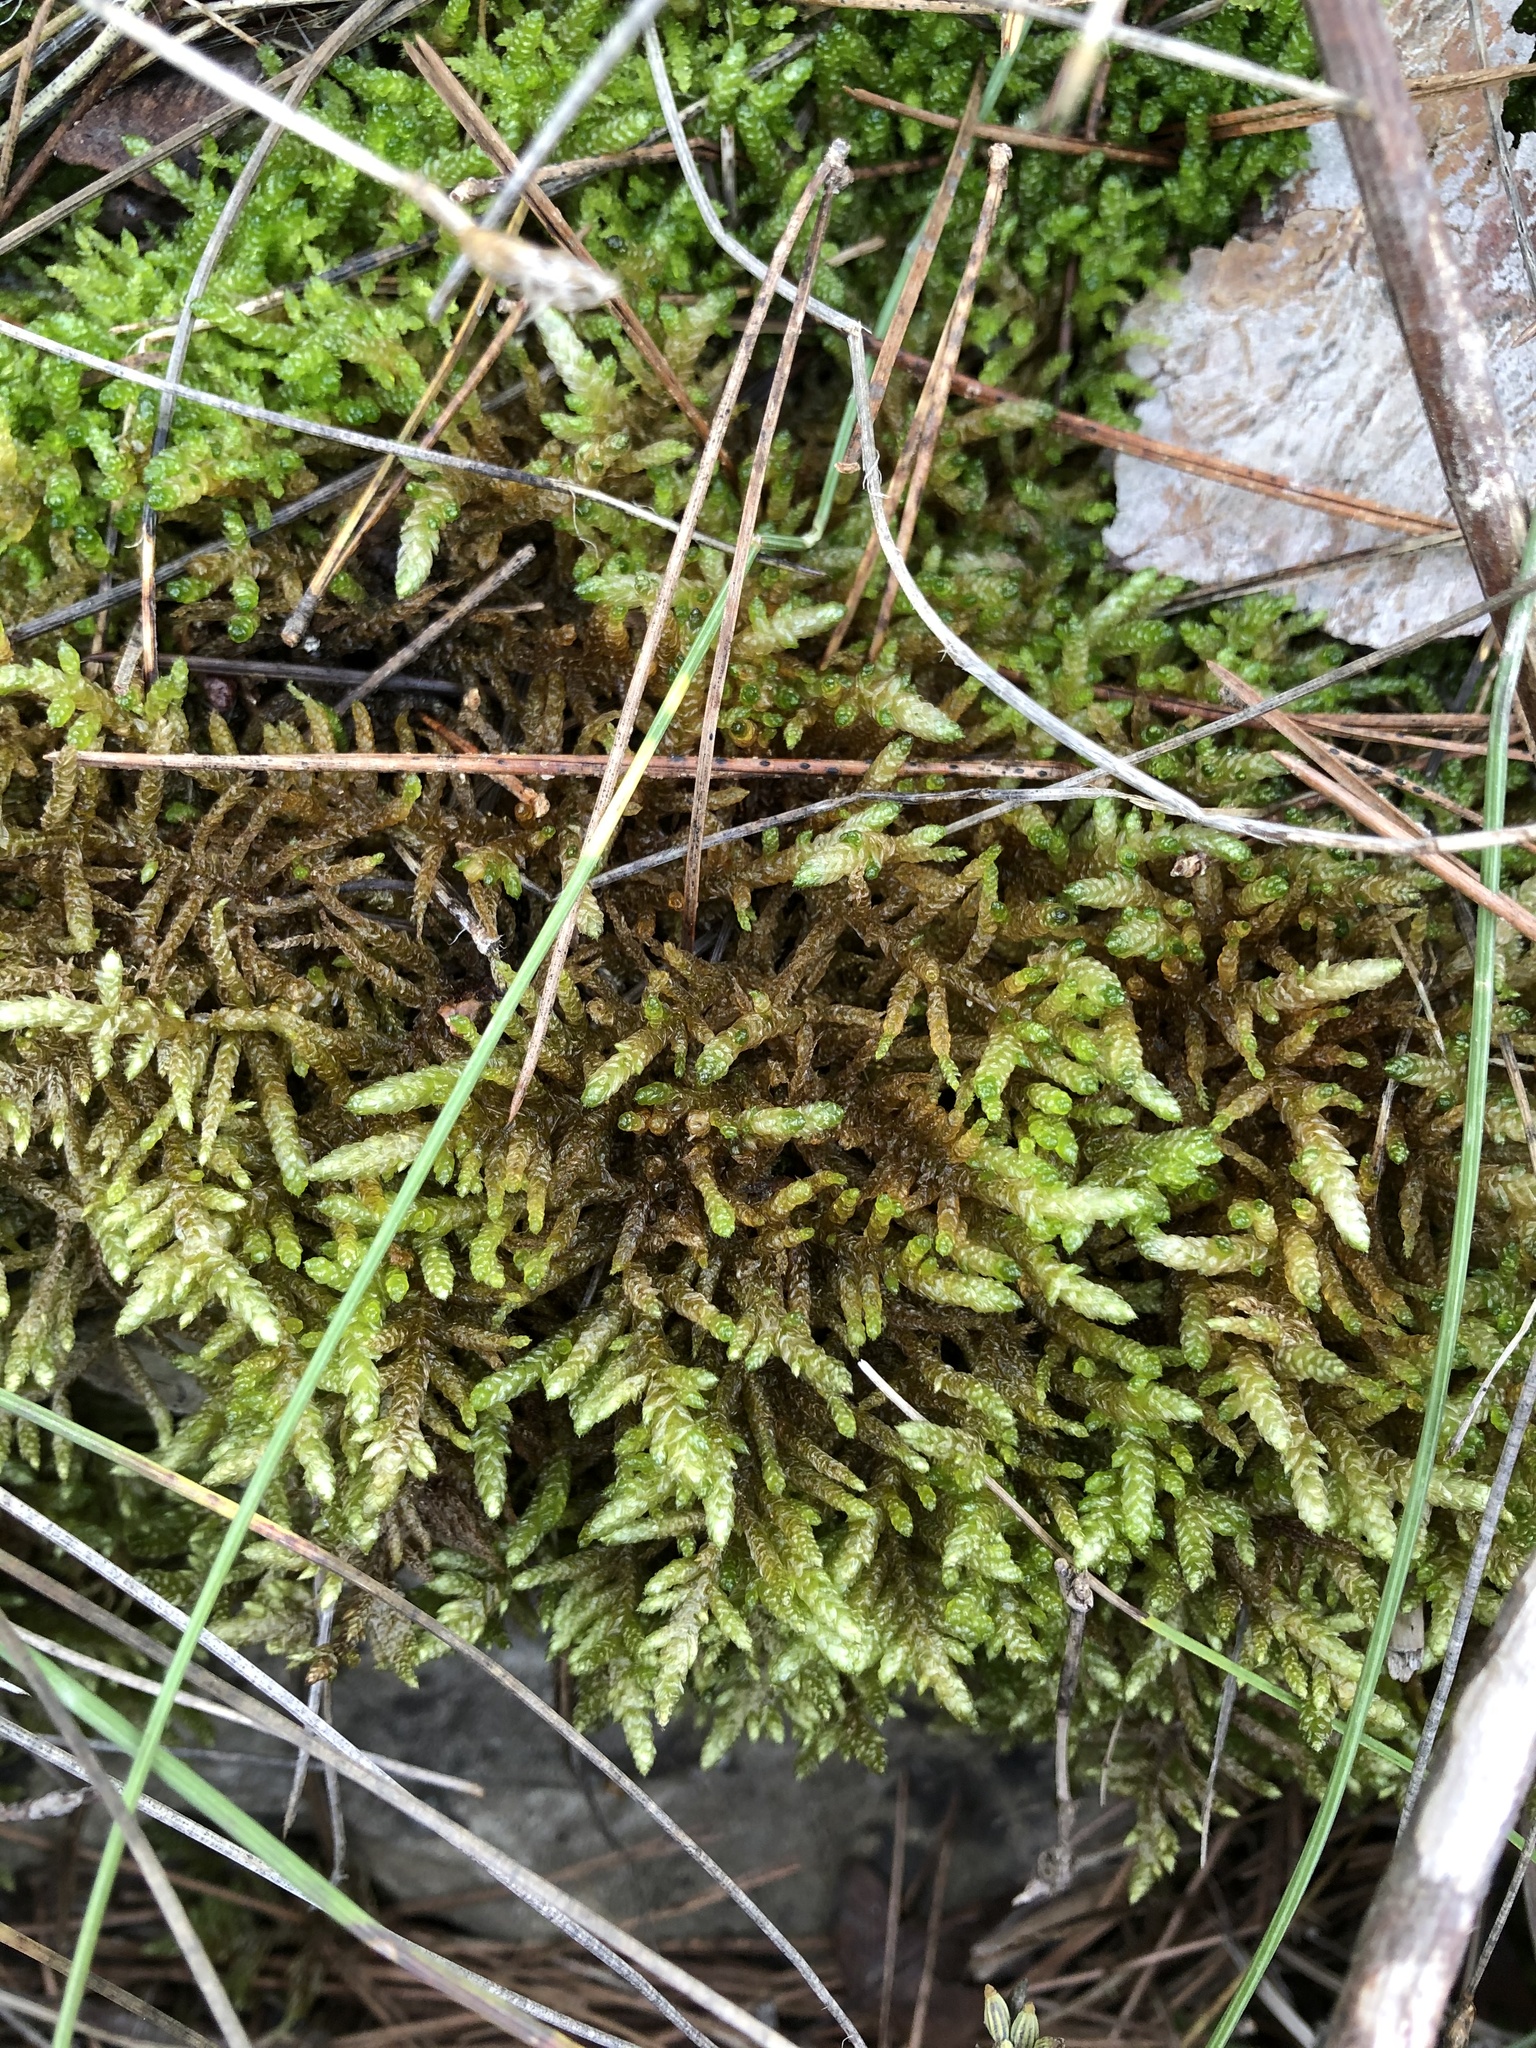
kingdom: Plantae
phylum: Bryophyta
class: Bryopsida
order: Hypnales
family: Brachytheciaceae
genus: Pseudoscleropodium
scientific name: Pseudoscleropodium purum
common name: Neat feather-moss
